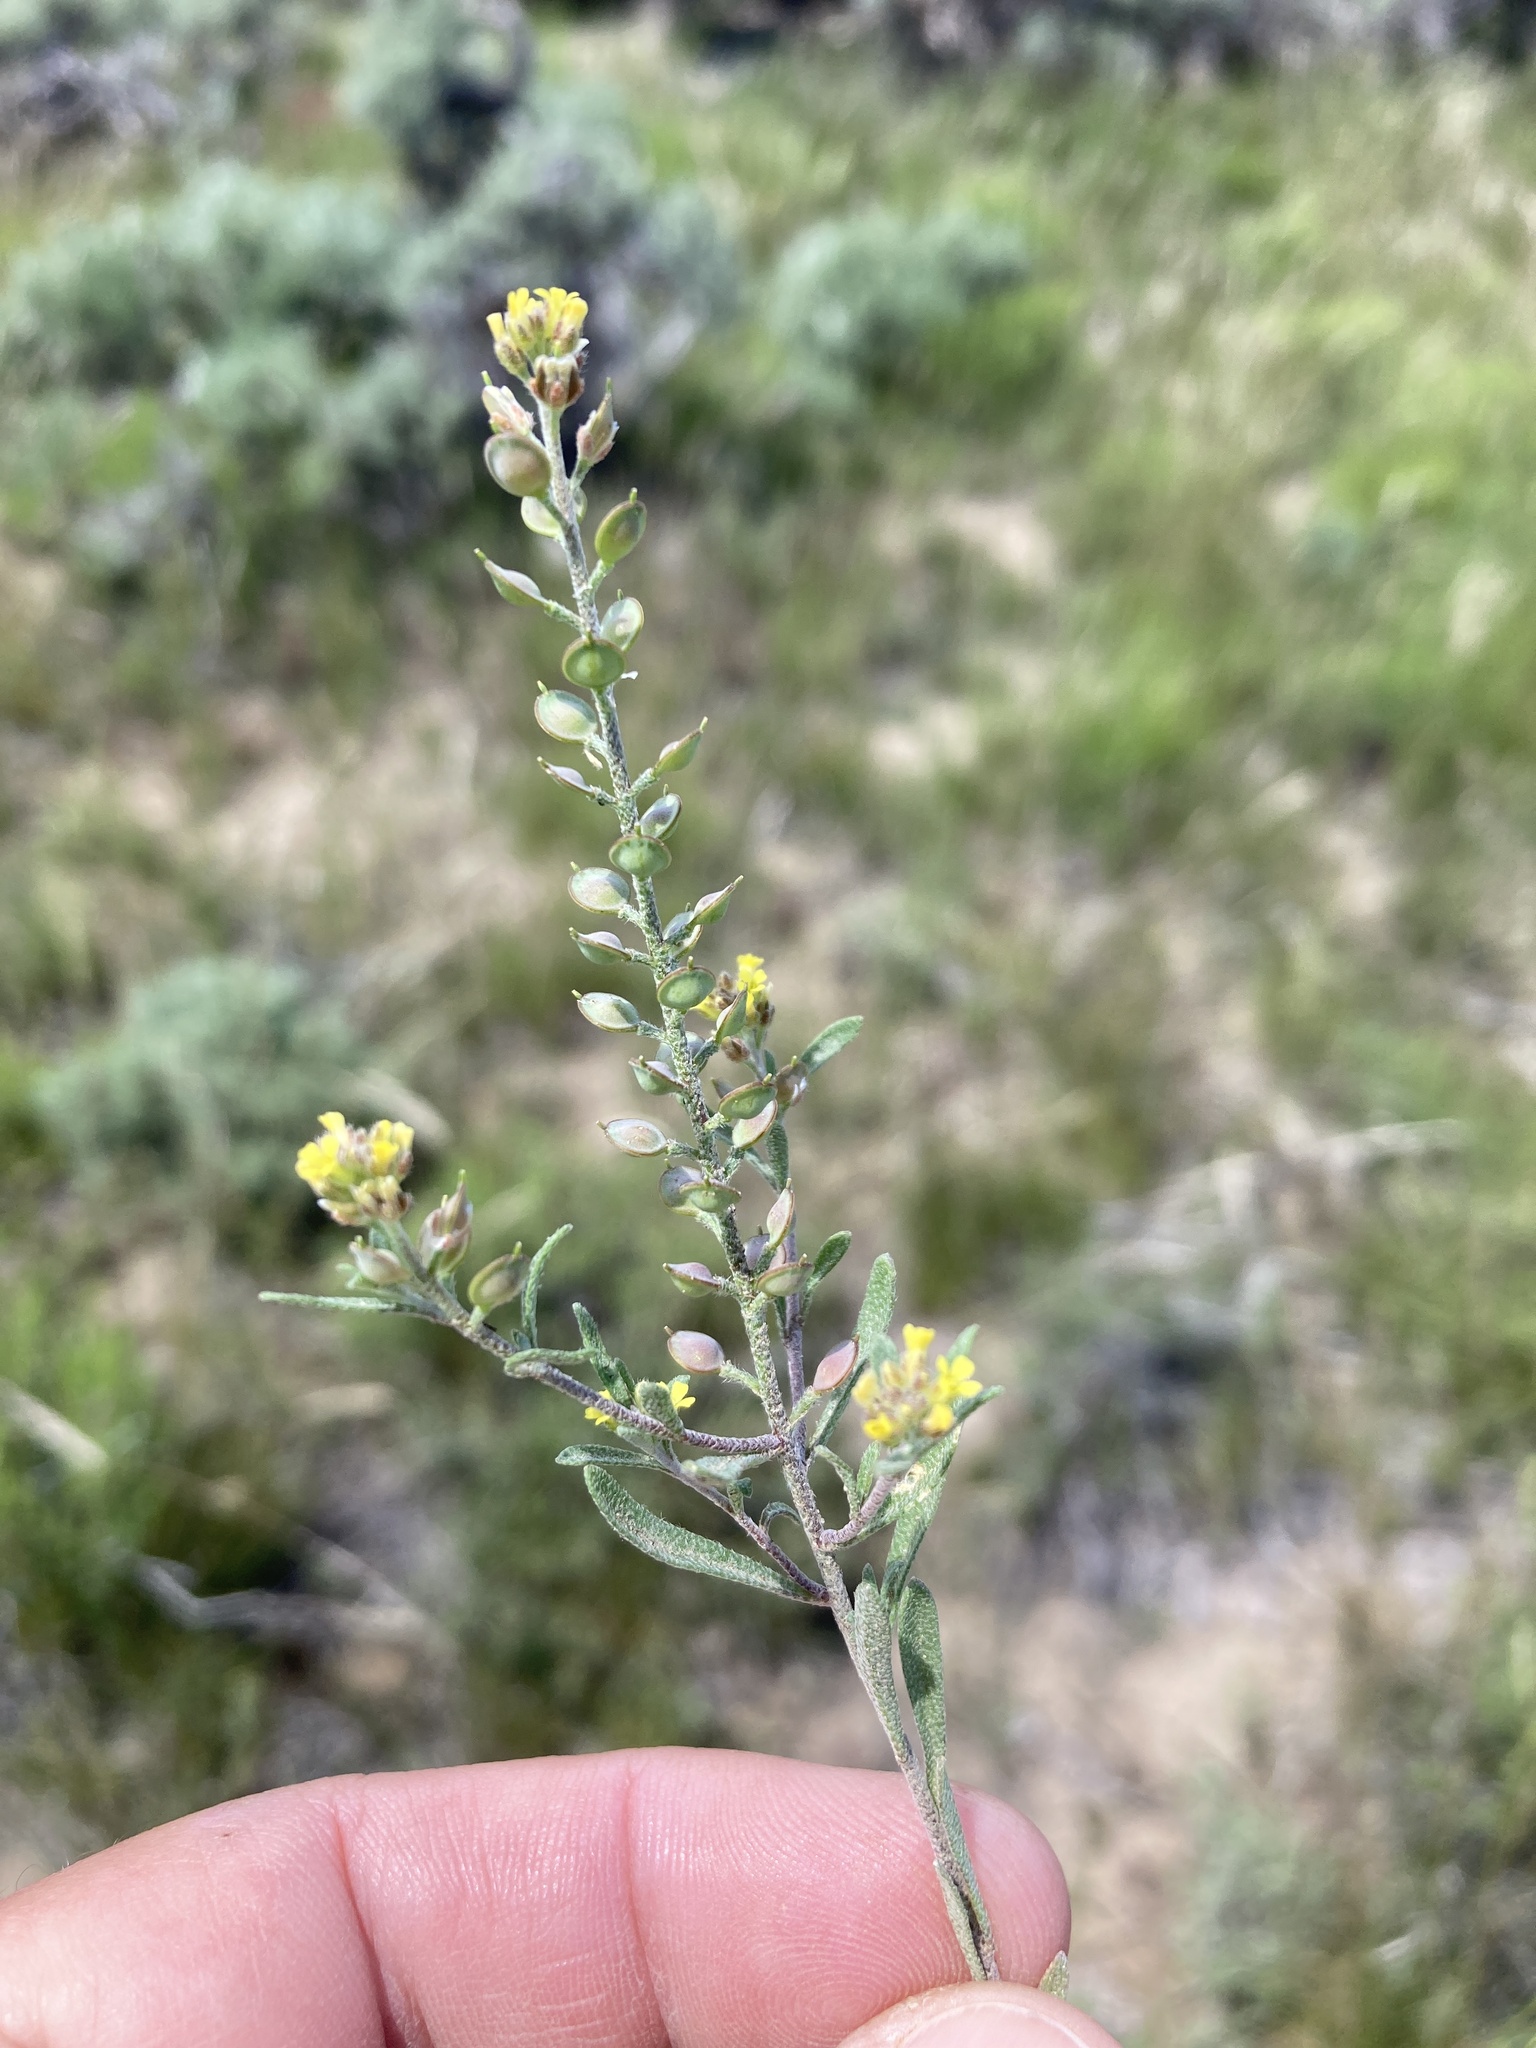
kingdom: Plantae
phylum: Tracheophyta
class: Magnoliopsida
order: Brassicales
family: Brassicaceae
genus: Alyssum
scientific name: Alyssum turkestanicum
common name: Desert alyssum
